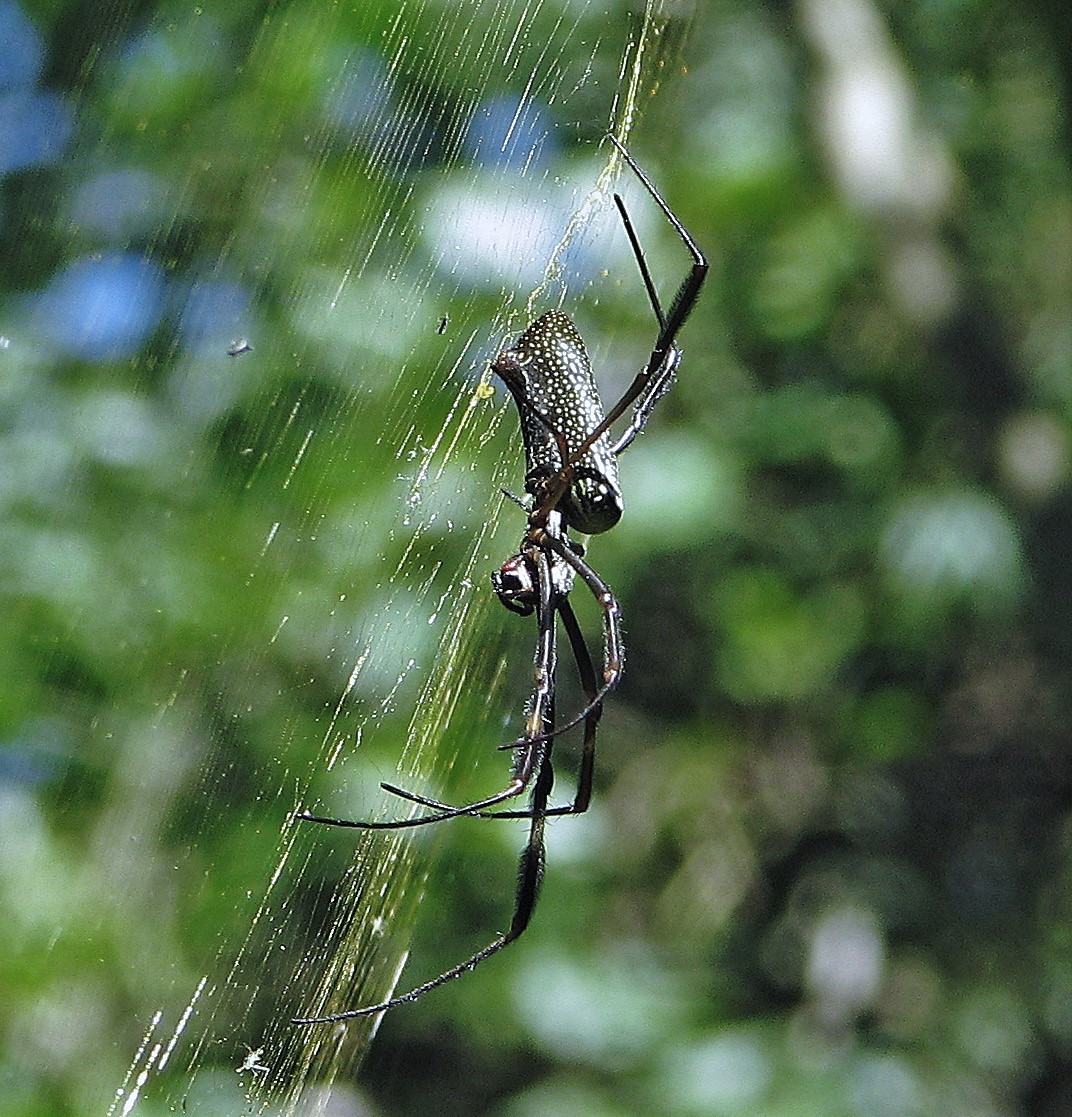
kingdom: Animalia
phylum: Arthropoda
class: Arachnida
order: Araneae
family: Araneidae
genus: Trichonephila
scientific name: Trichonephila clavipes
